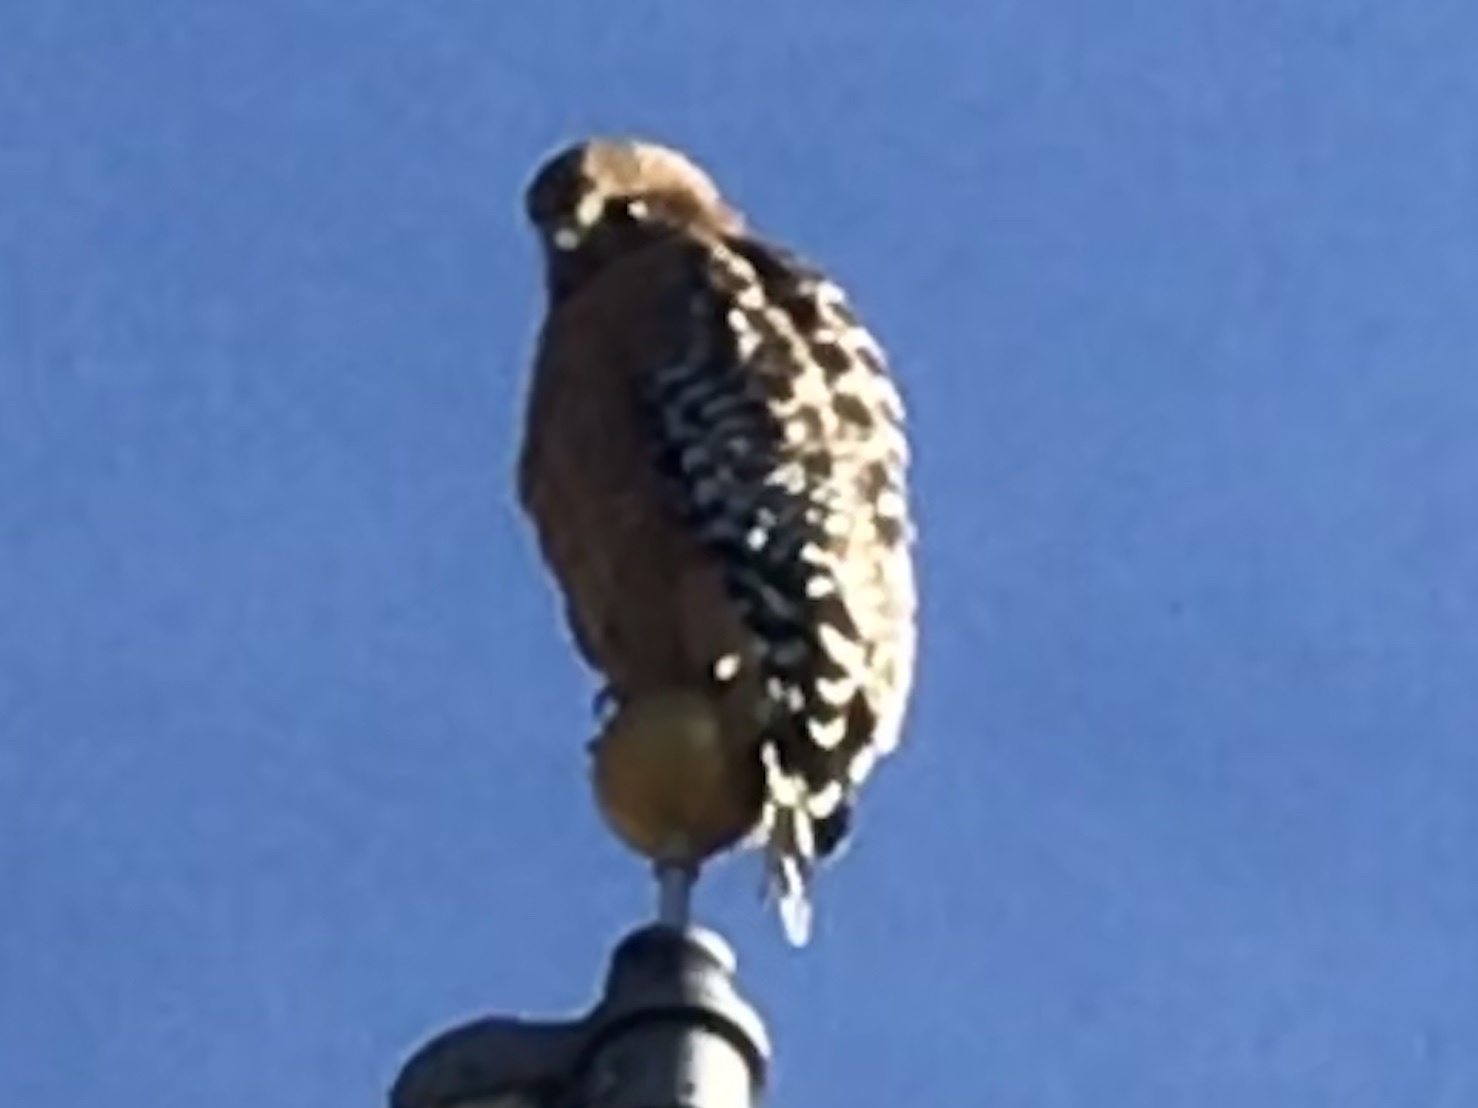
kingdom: Animalia
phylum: Chordata
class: Aves
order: Accipitriformes
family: Accipitridae
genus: Buteo
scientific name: Buteo lineatus
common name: Red-shouldered hawk
